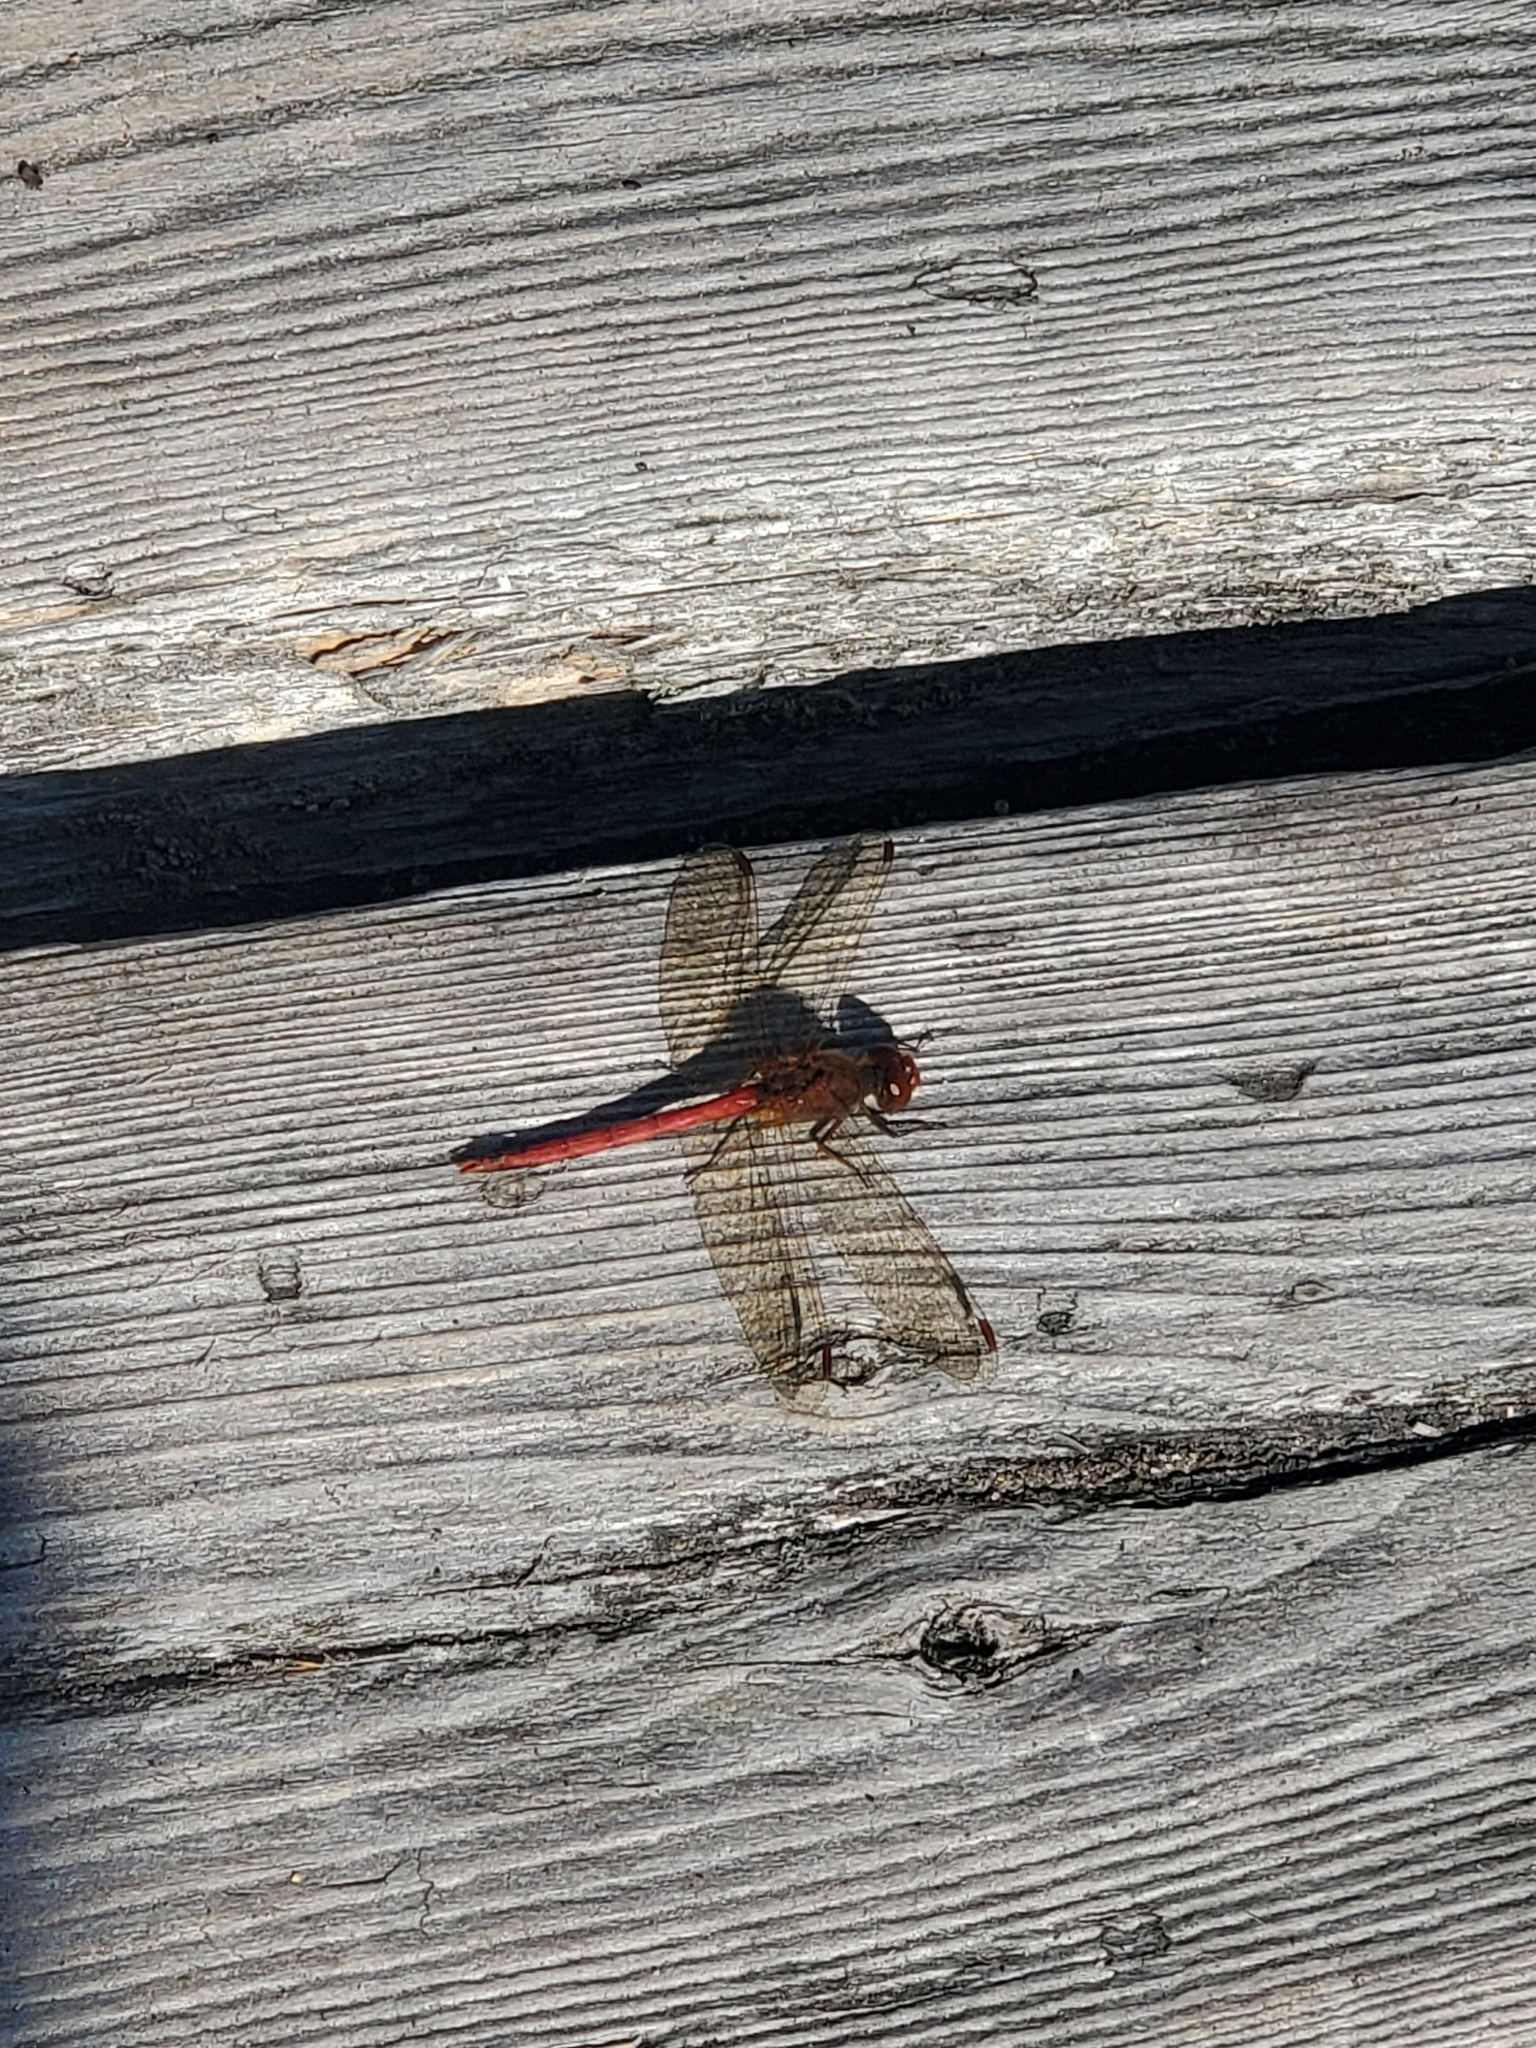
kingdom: Animalia
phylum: Arthropoda
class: Insecta
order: Odonata
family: Libellulidae
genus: Sympetrum
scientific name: Sympetrum vicinum
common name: Autumn meadowhawk
